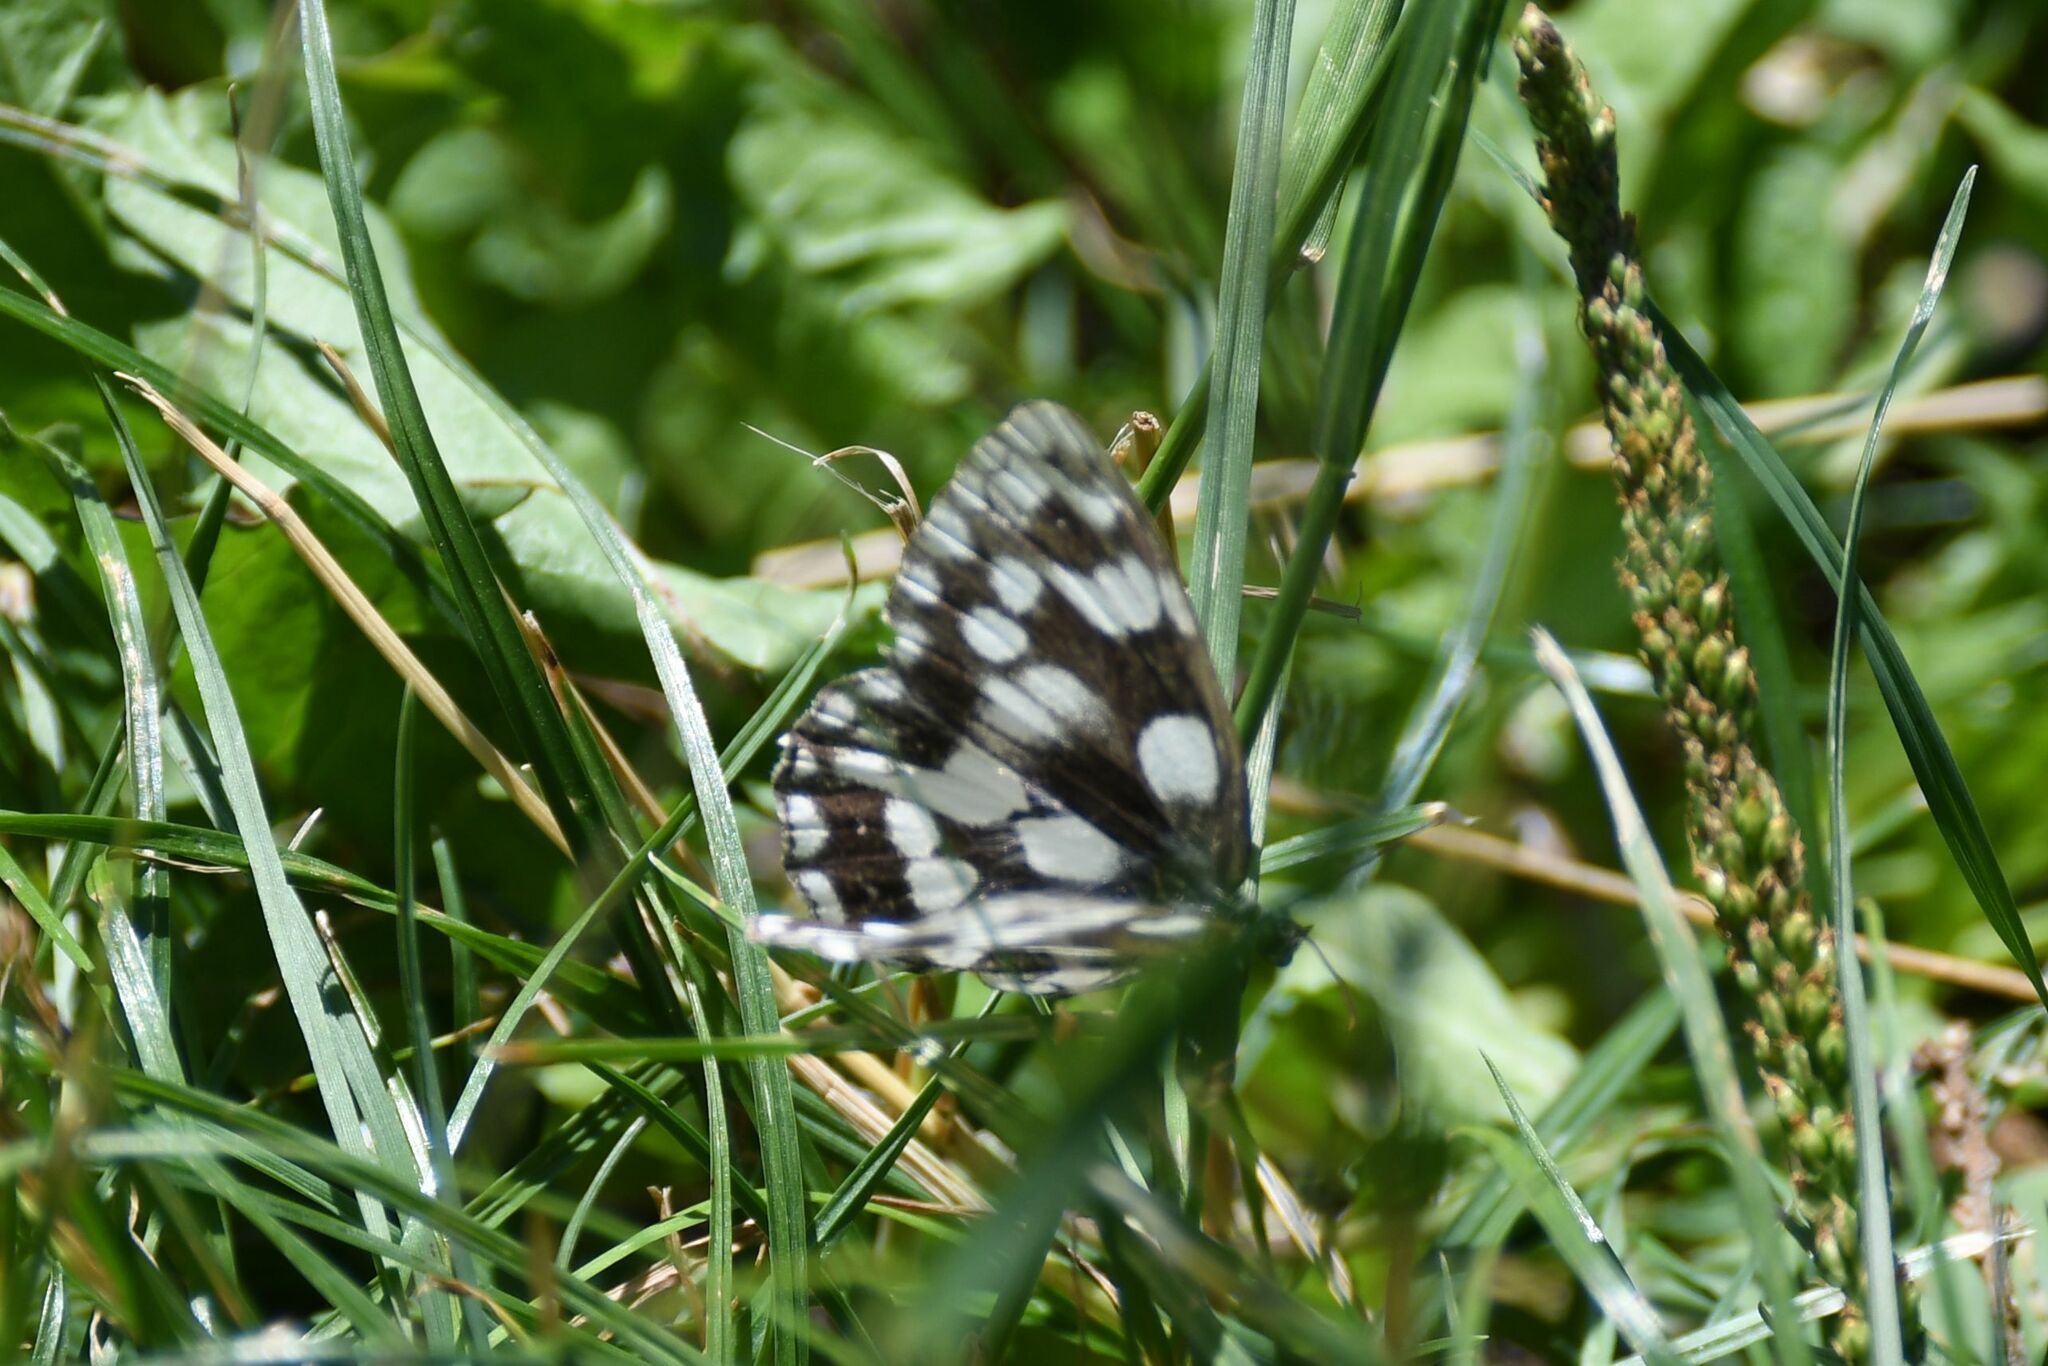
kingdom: Animalia
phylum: Arthropoda
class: Insecta
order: Lepidoptera
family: Nymphalidae
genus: Melanargia
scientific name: Melanargia galathea
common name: Marbled white
